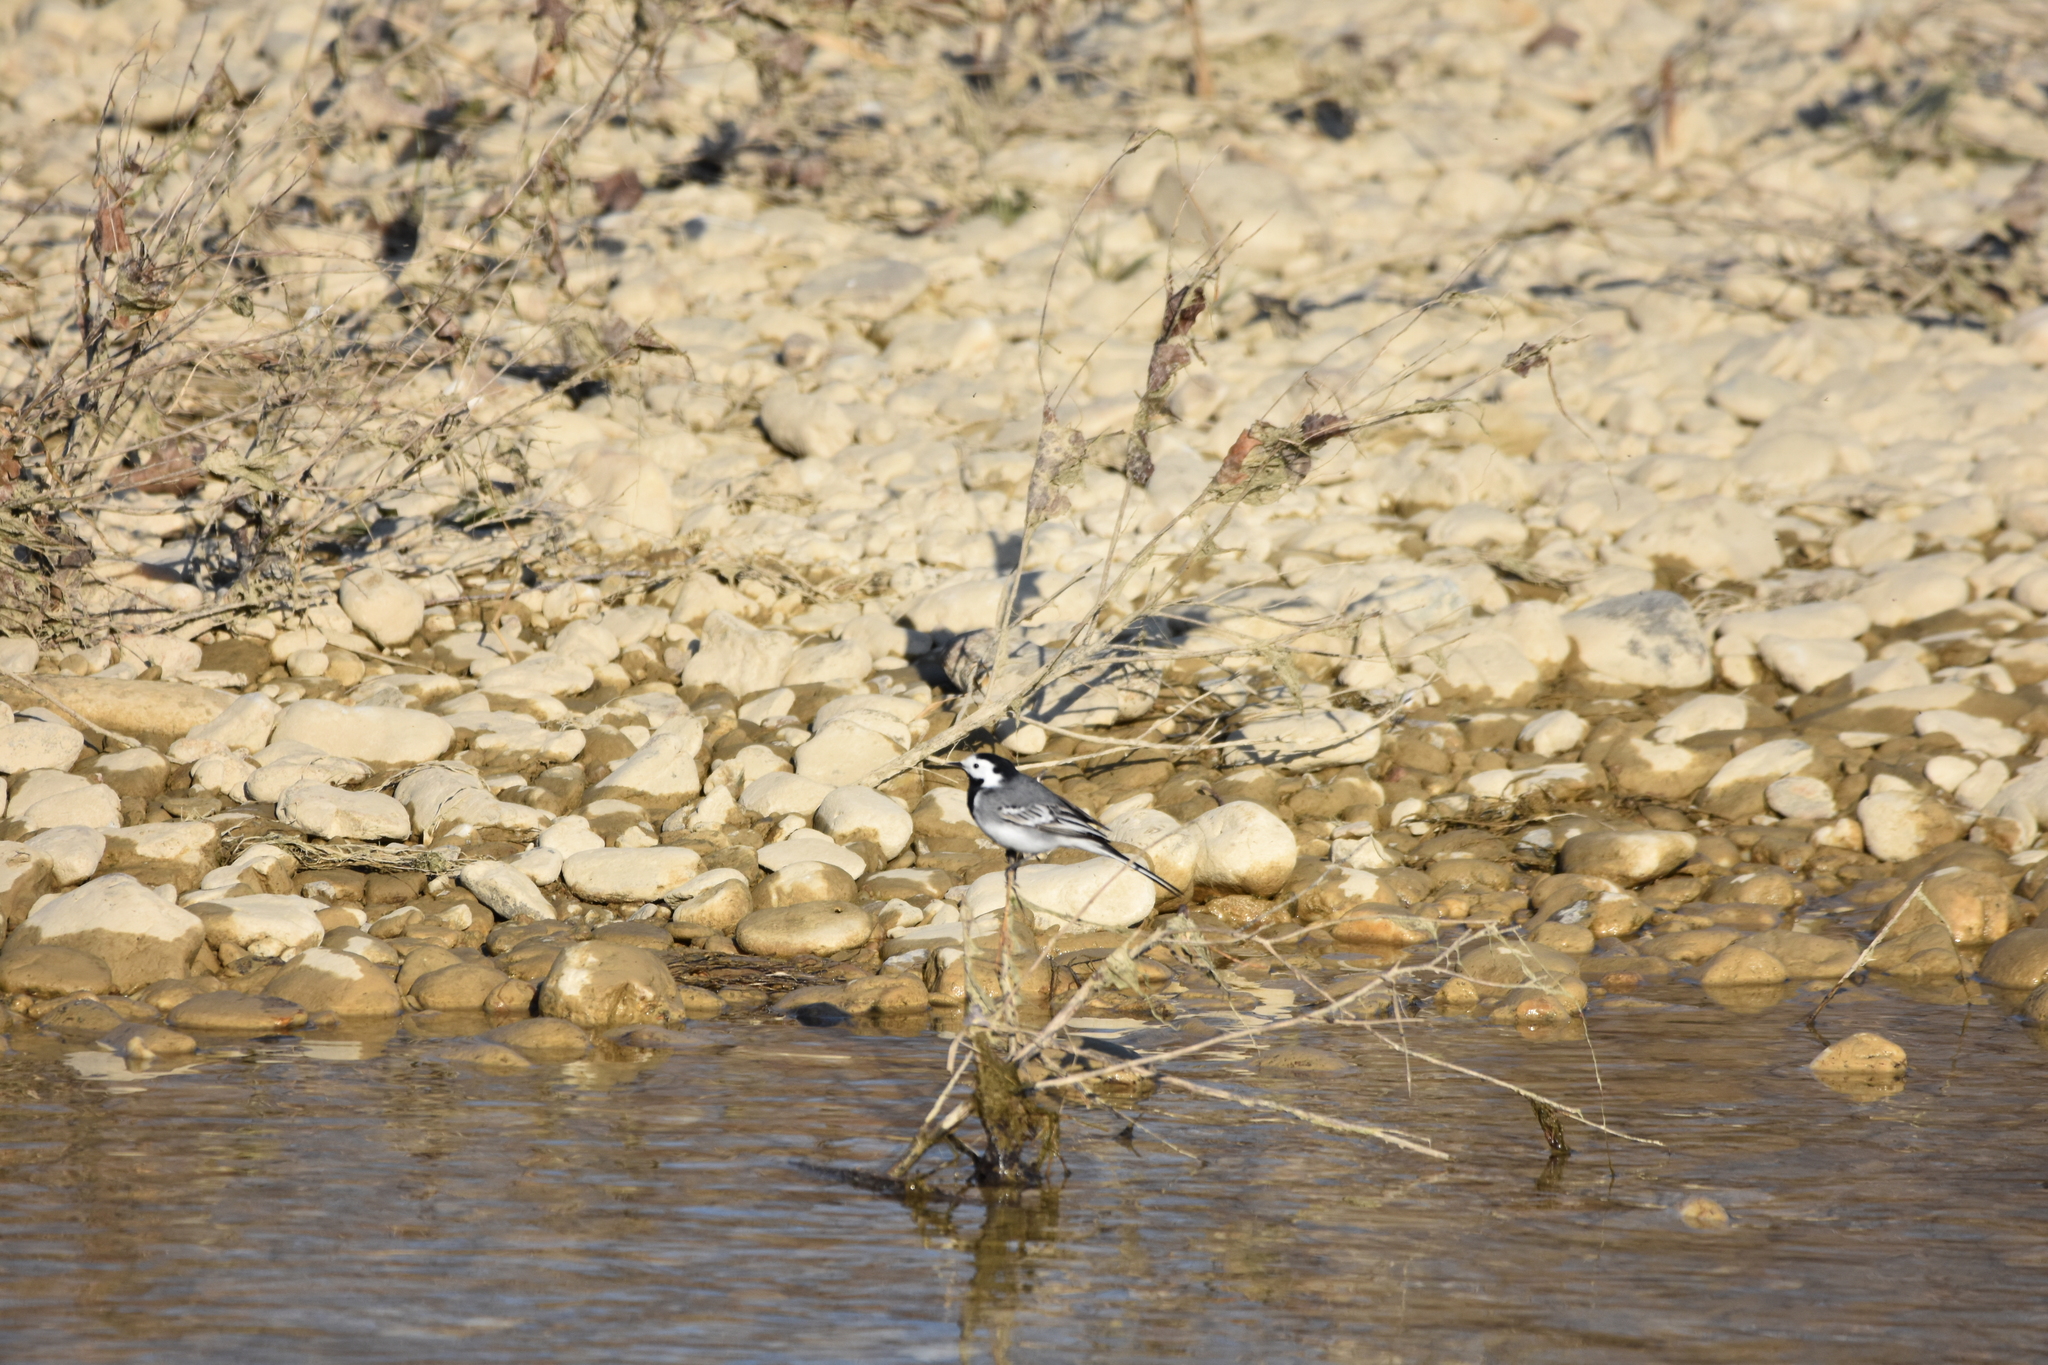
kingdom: Animalia
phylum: Chordata
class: Aves
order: Passeriformes
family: Motacillidae
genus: Motacilla
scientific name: Motacilla alba
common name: White wagtail
